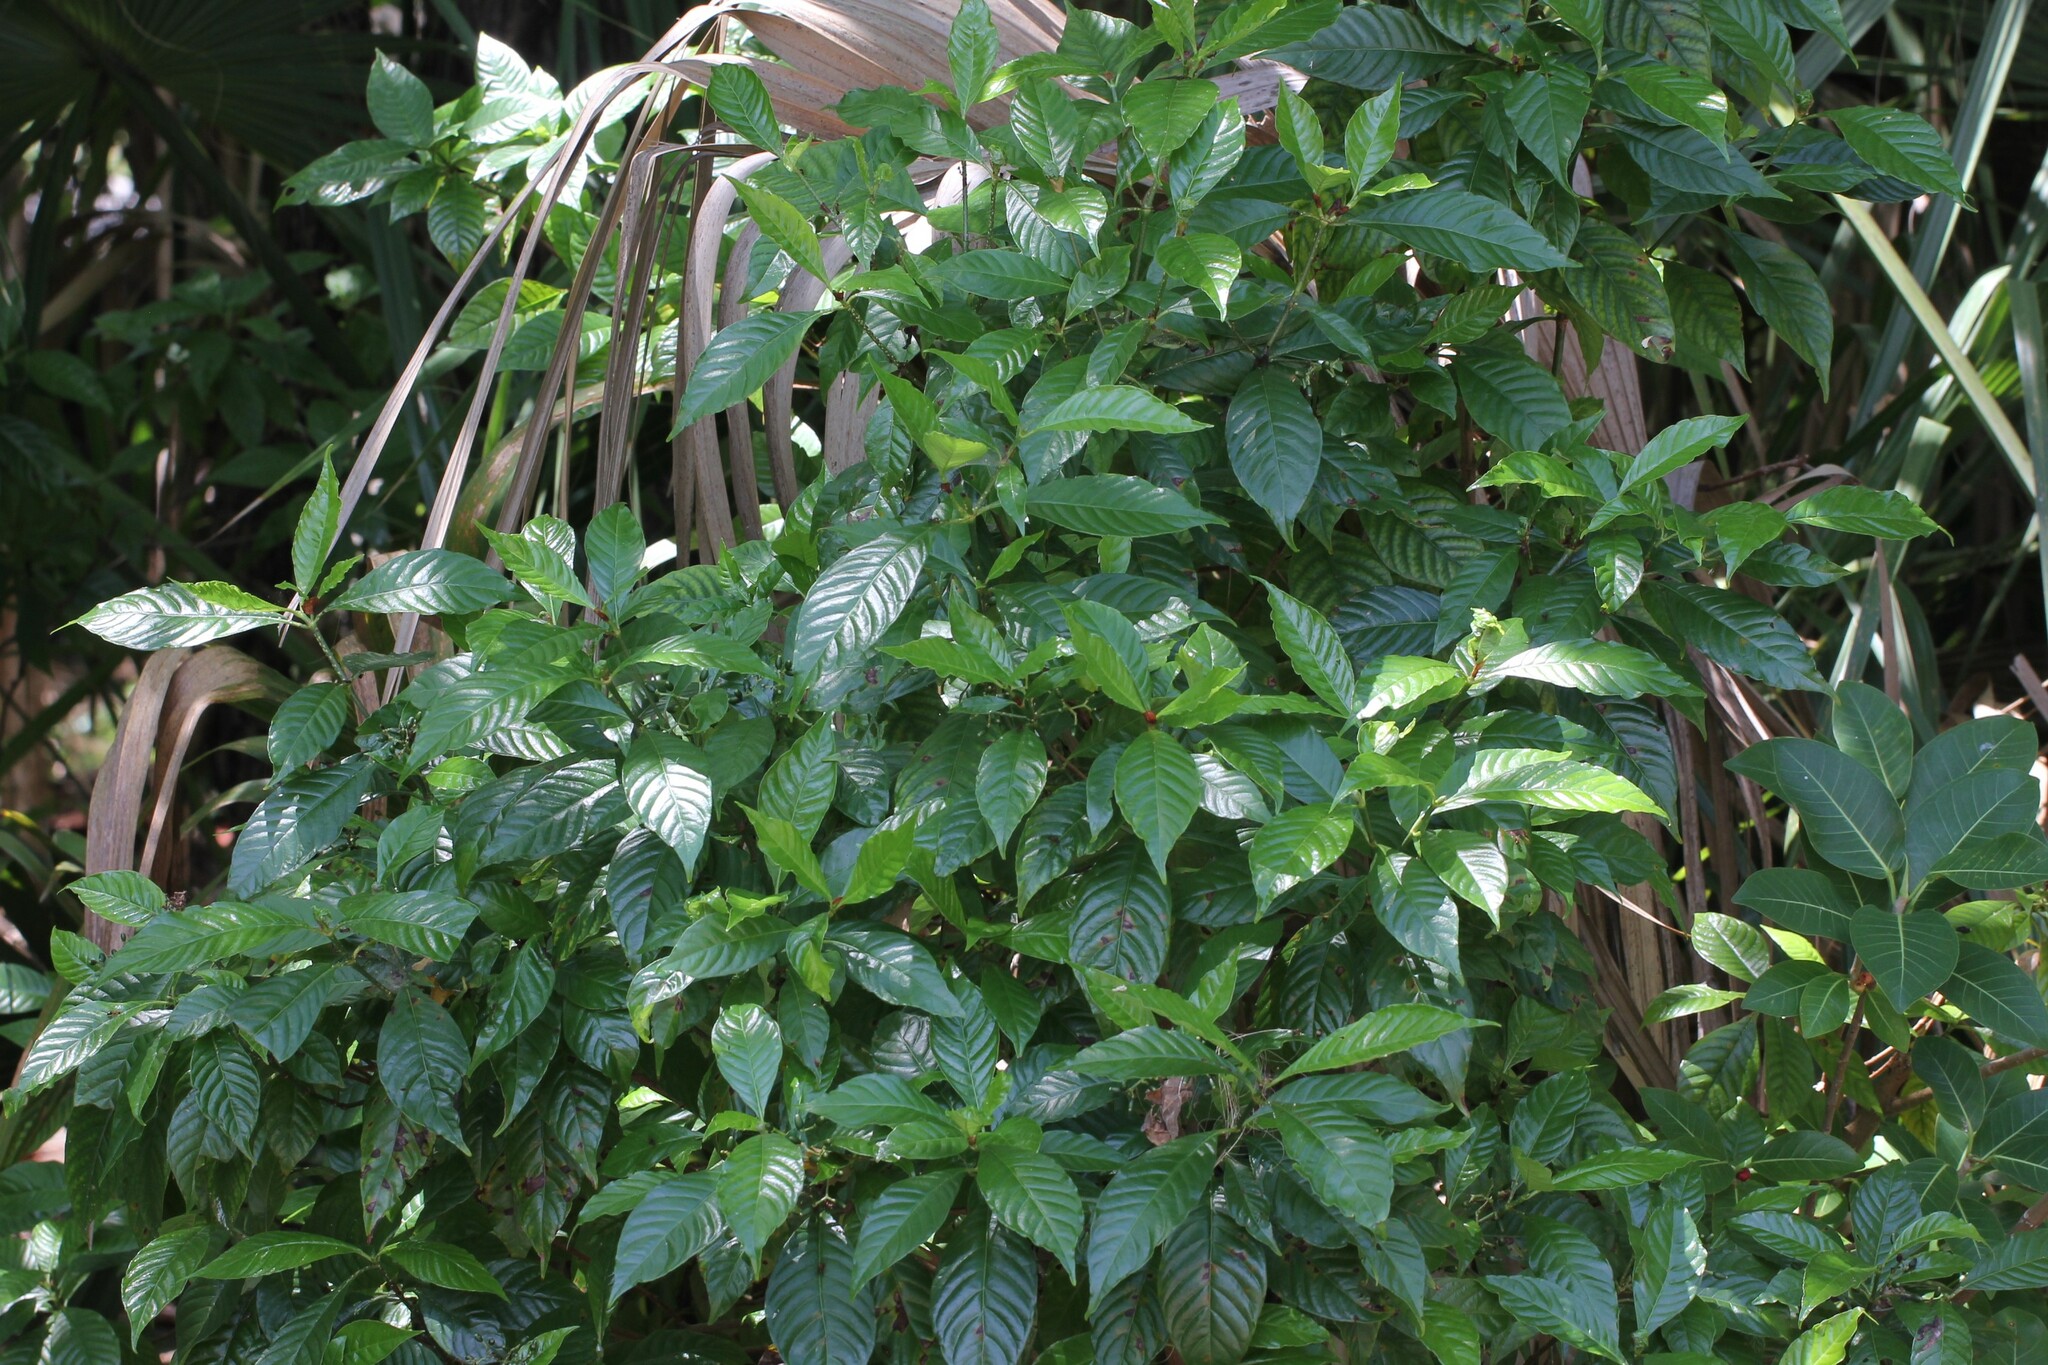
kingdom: Plantae
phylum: Tracheophyta
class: Magnoliopsida
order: Gentianales
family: Rubiaceae
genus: Psychotria
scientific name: Psychotria nervosa
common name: Bastard cankerberry
